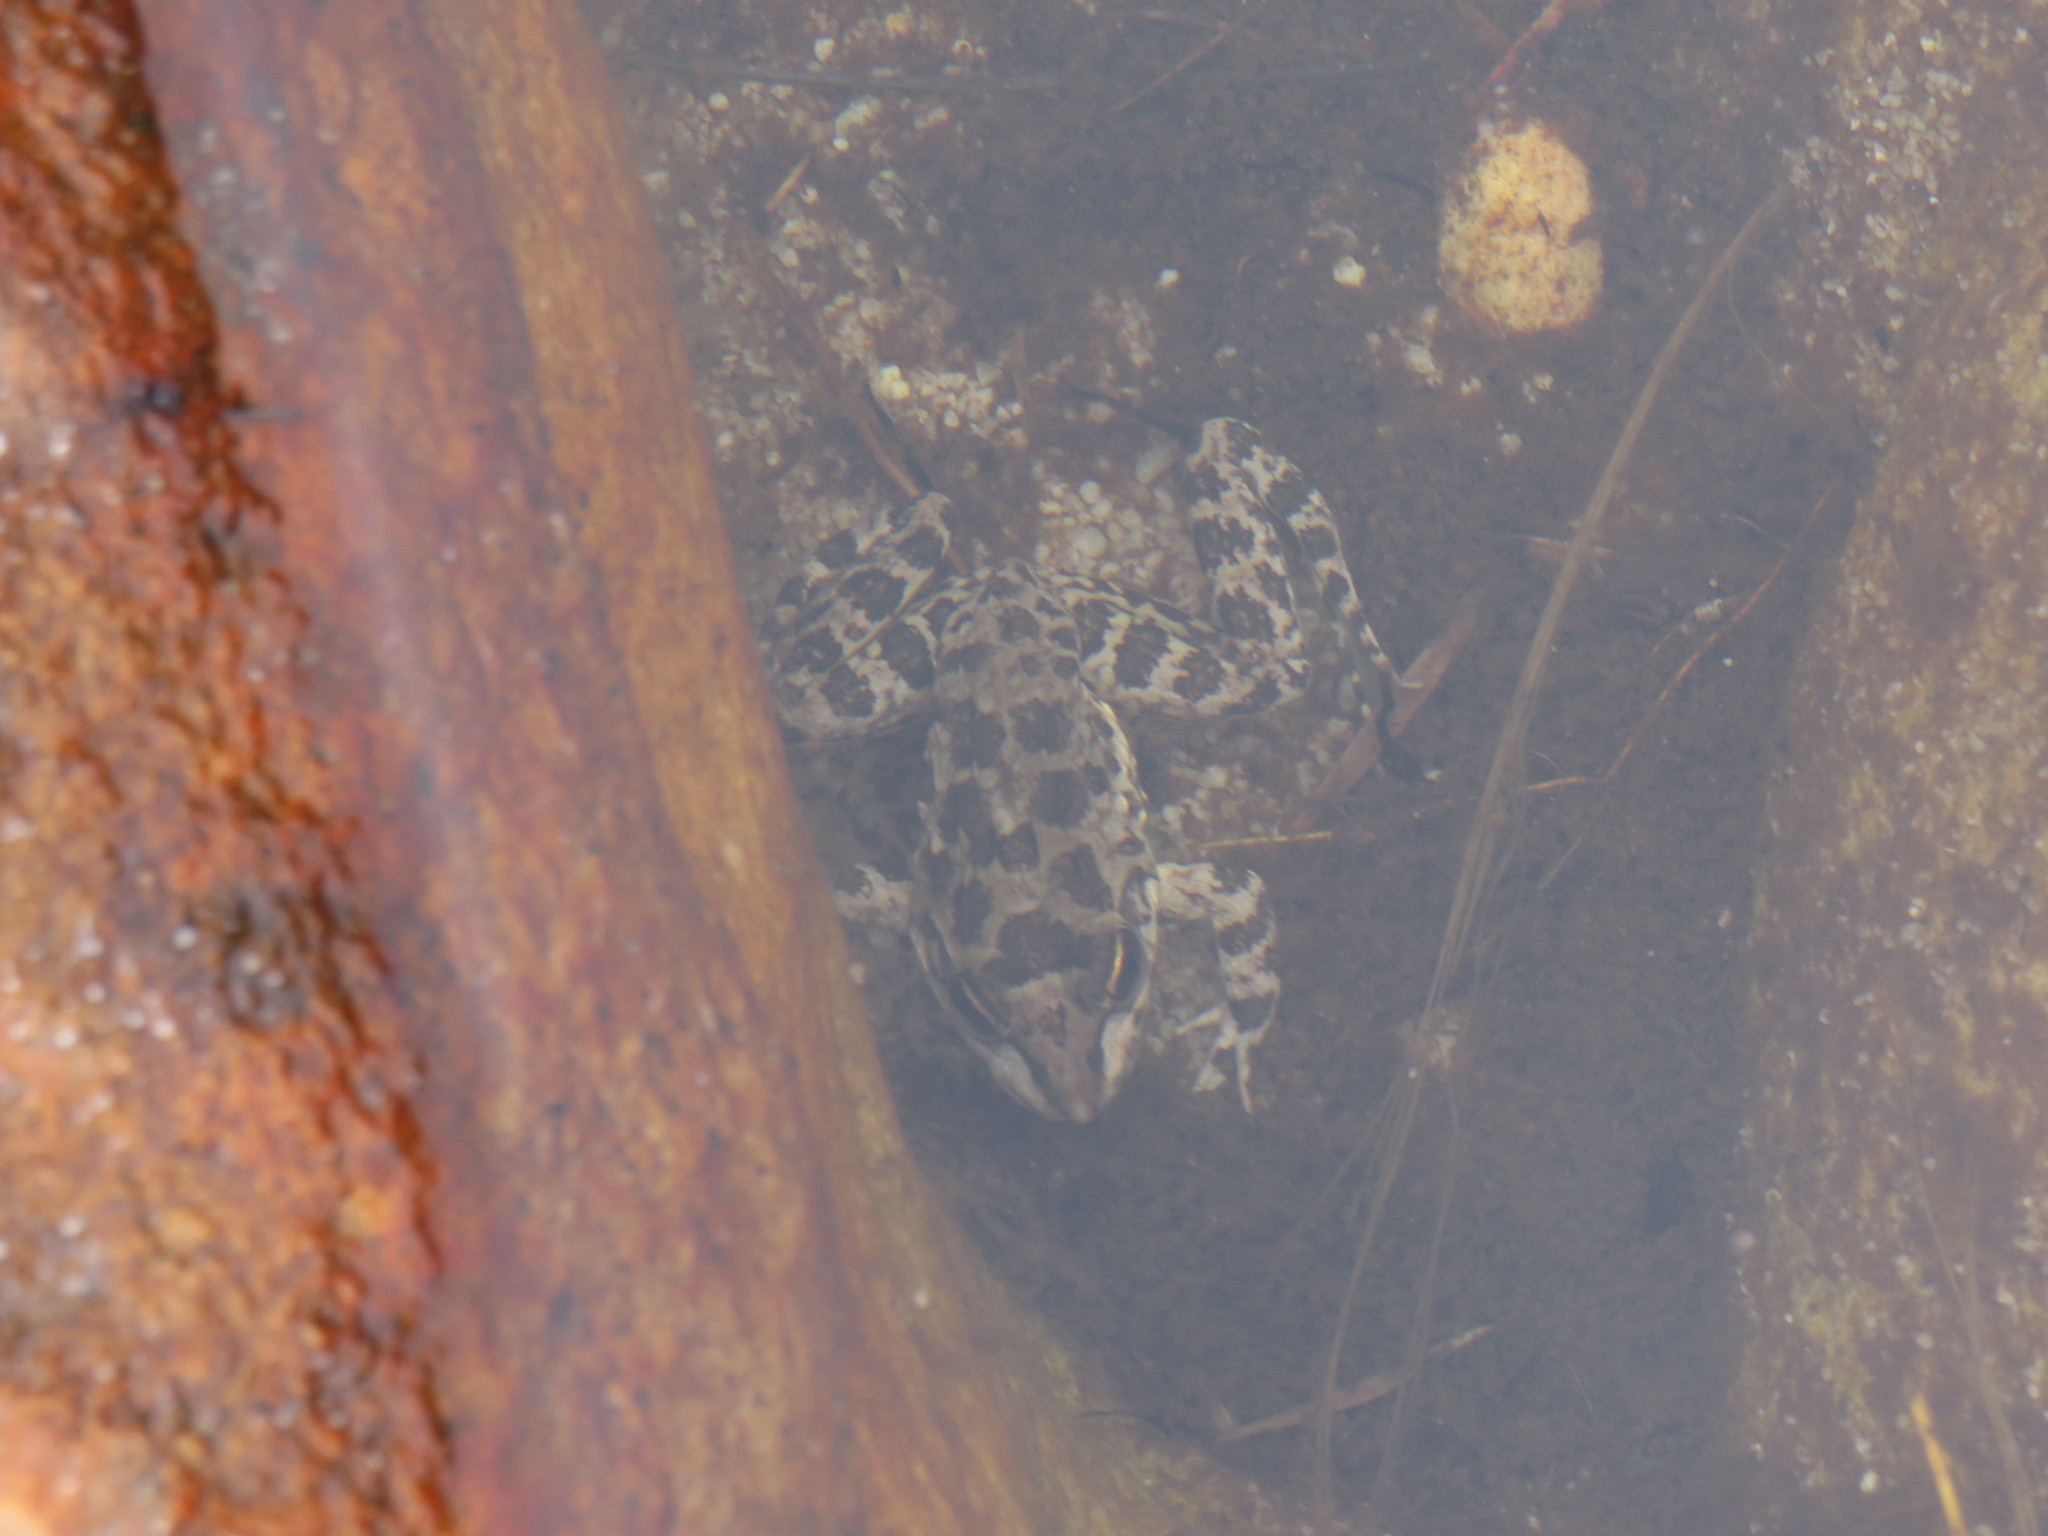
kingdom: Animalia
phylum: Chordata
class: Amphibia
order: Anura
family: Pyxicephalidae
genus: Amietia
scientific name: Amietia fuscigula
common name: Cape rana
